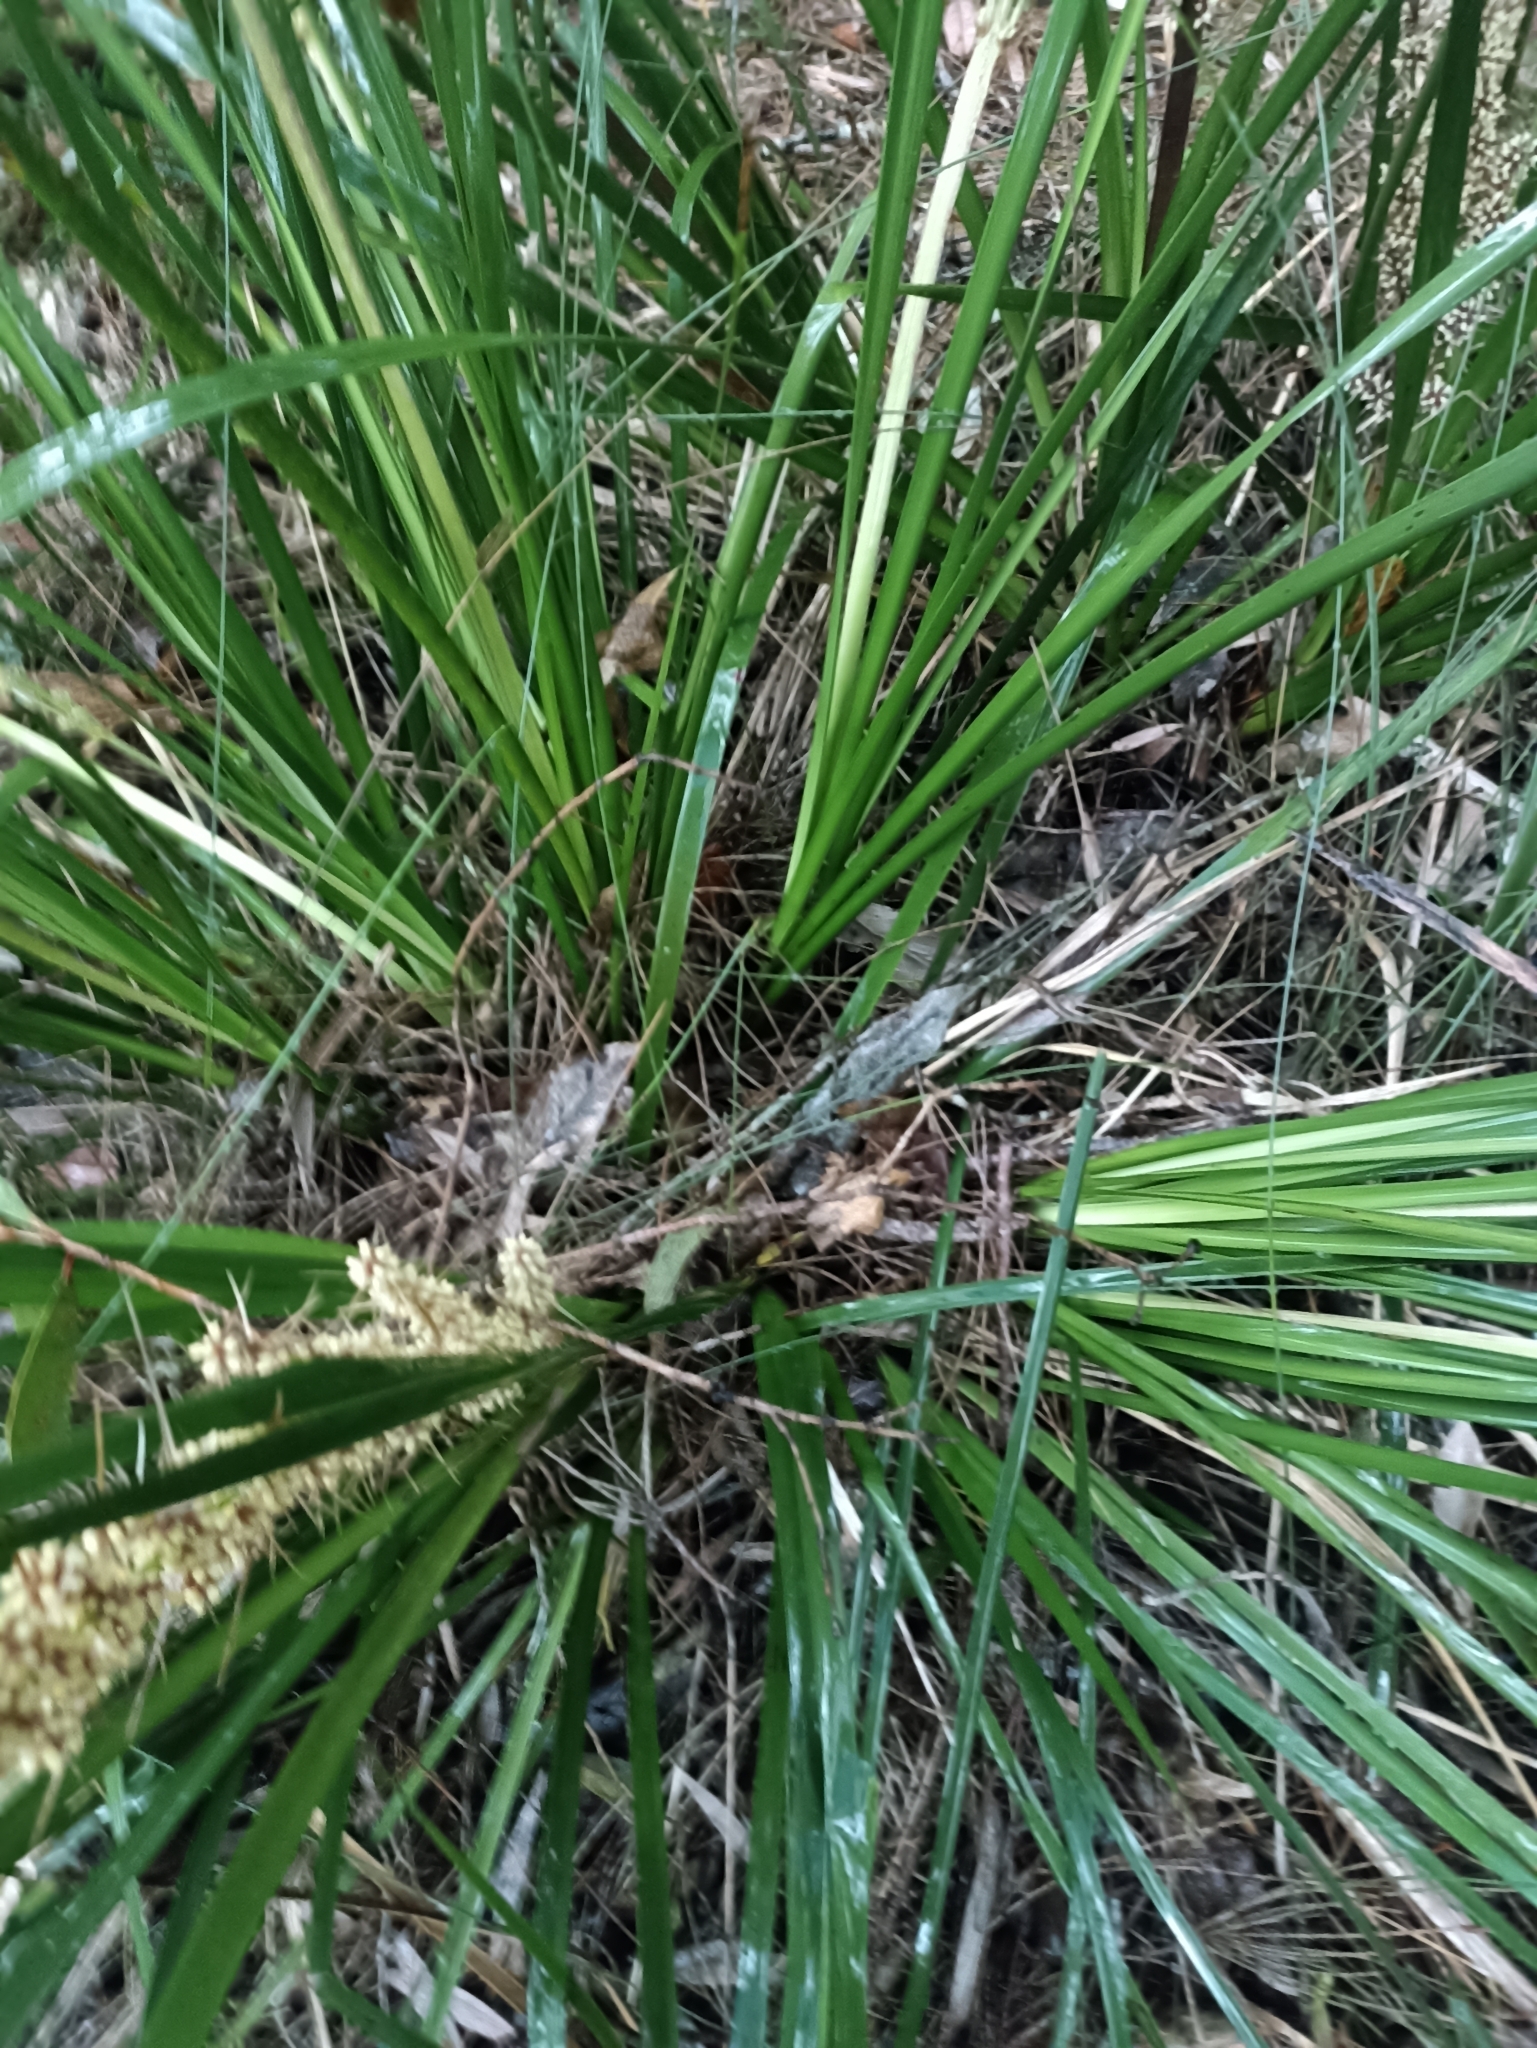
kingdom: Plantae
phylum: Tracheophyta
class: Liliopsida
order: Asparagales
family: Asparagaceae
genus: Lomandra
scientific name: Lomandra longifolia
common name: Longleaf mat-rush
